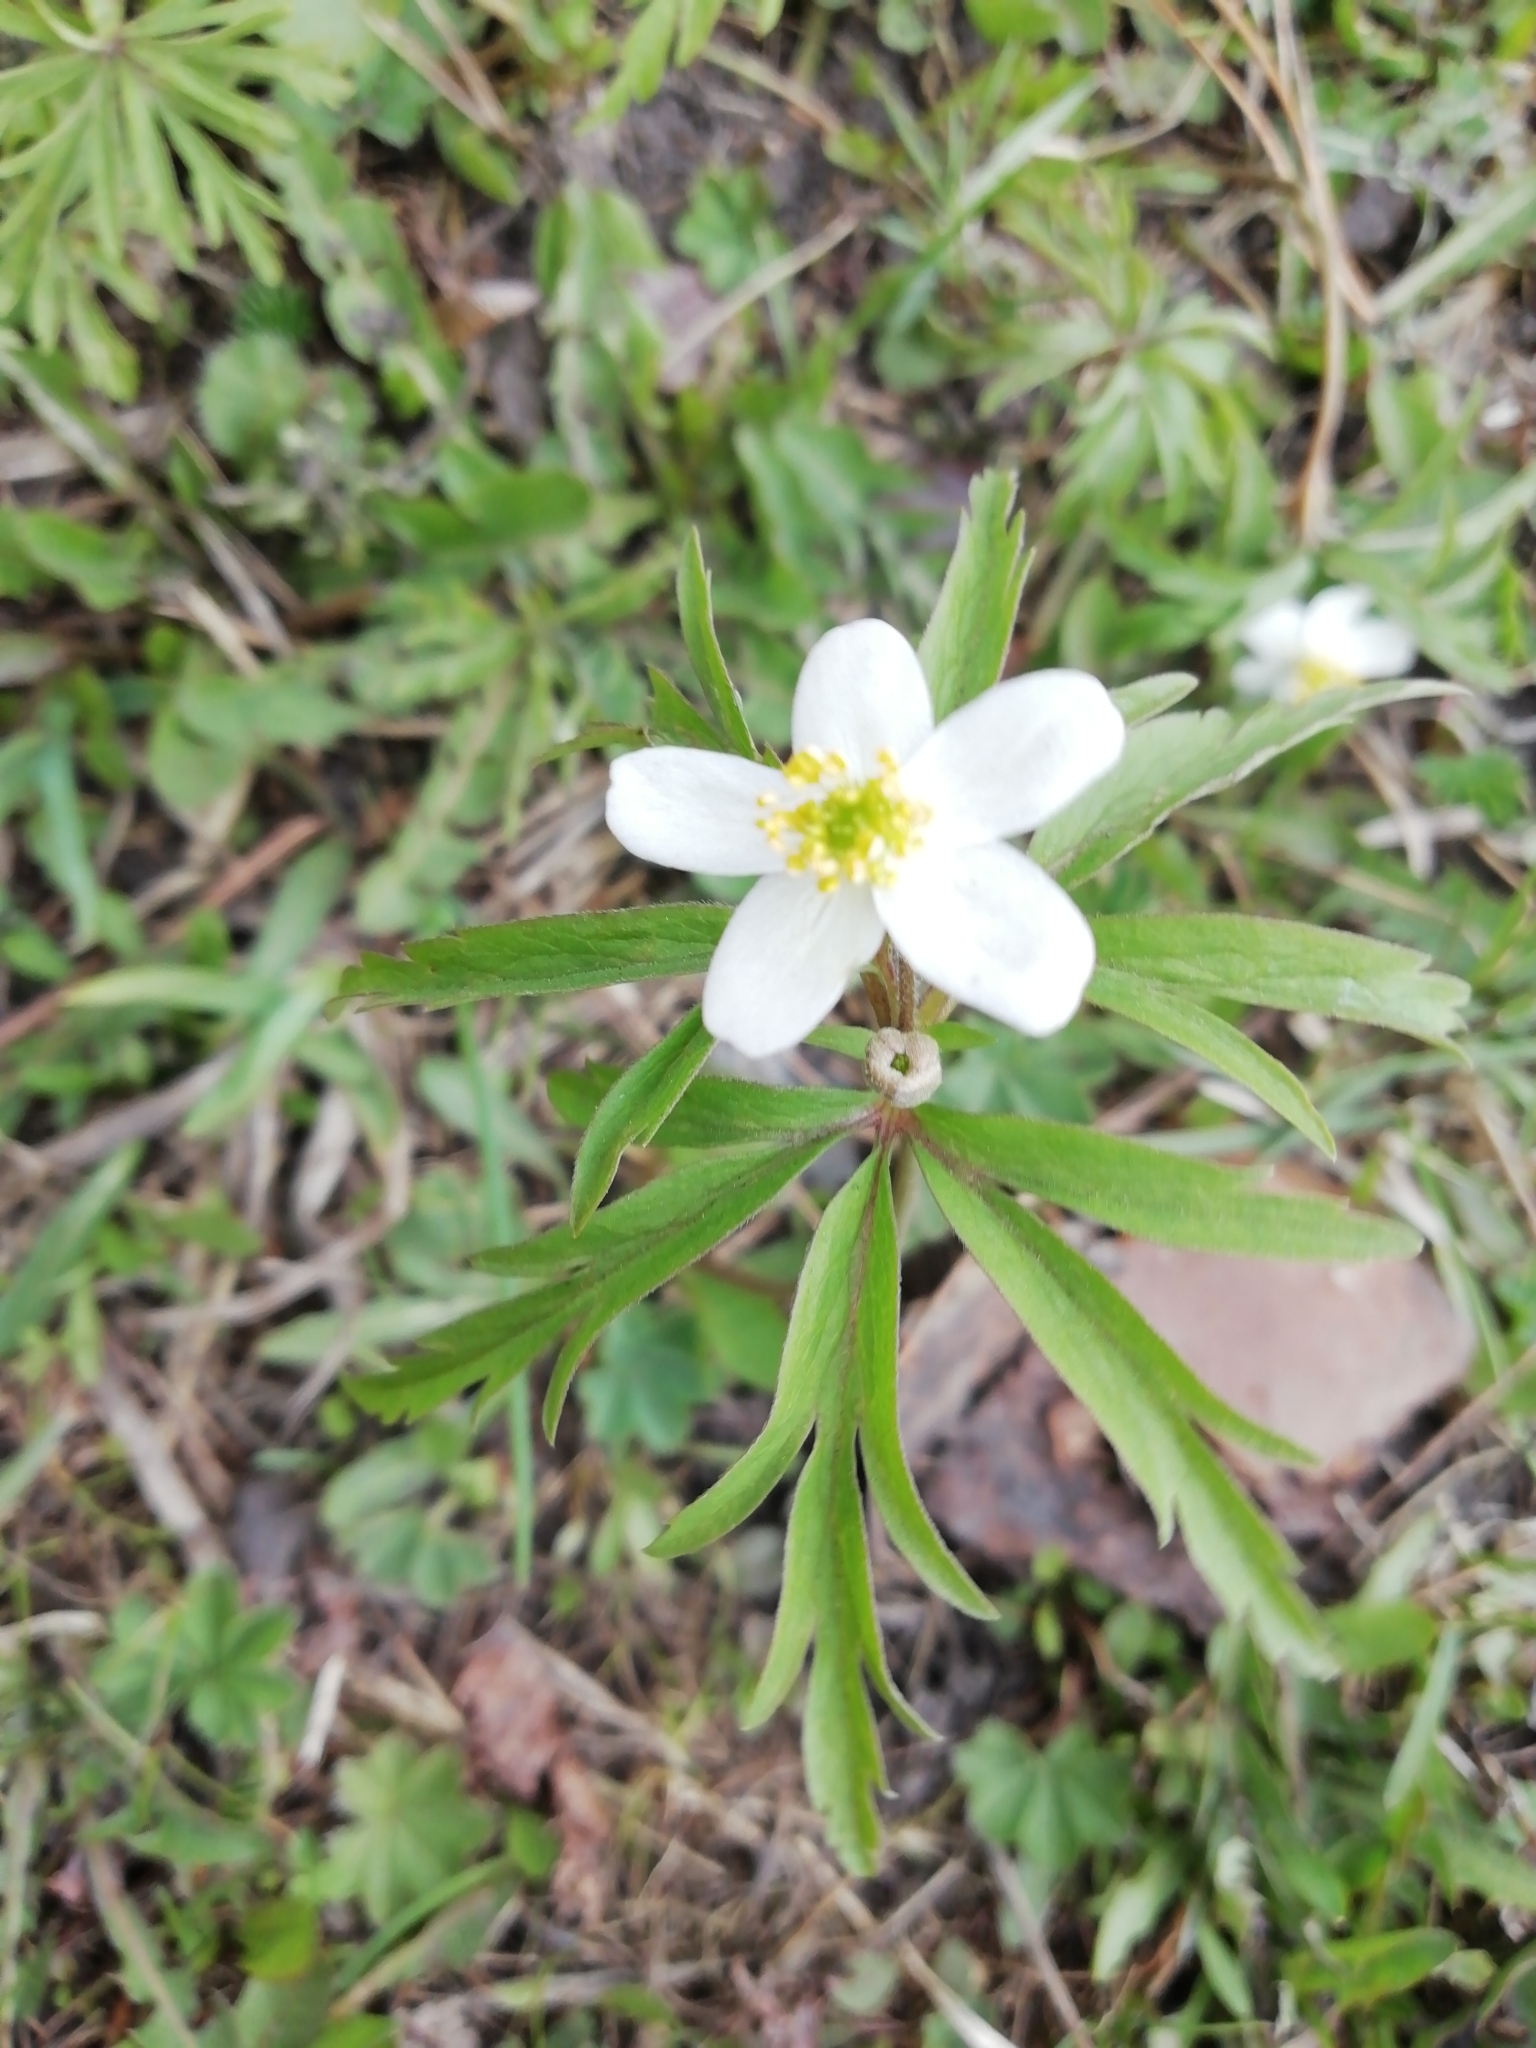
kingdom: Plantae
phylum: Tracheophyta
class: Magnoliopsida
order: Ranunculales
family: Ranunculaceae
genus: Anemone
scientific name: Anemone caerulea
